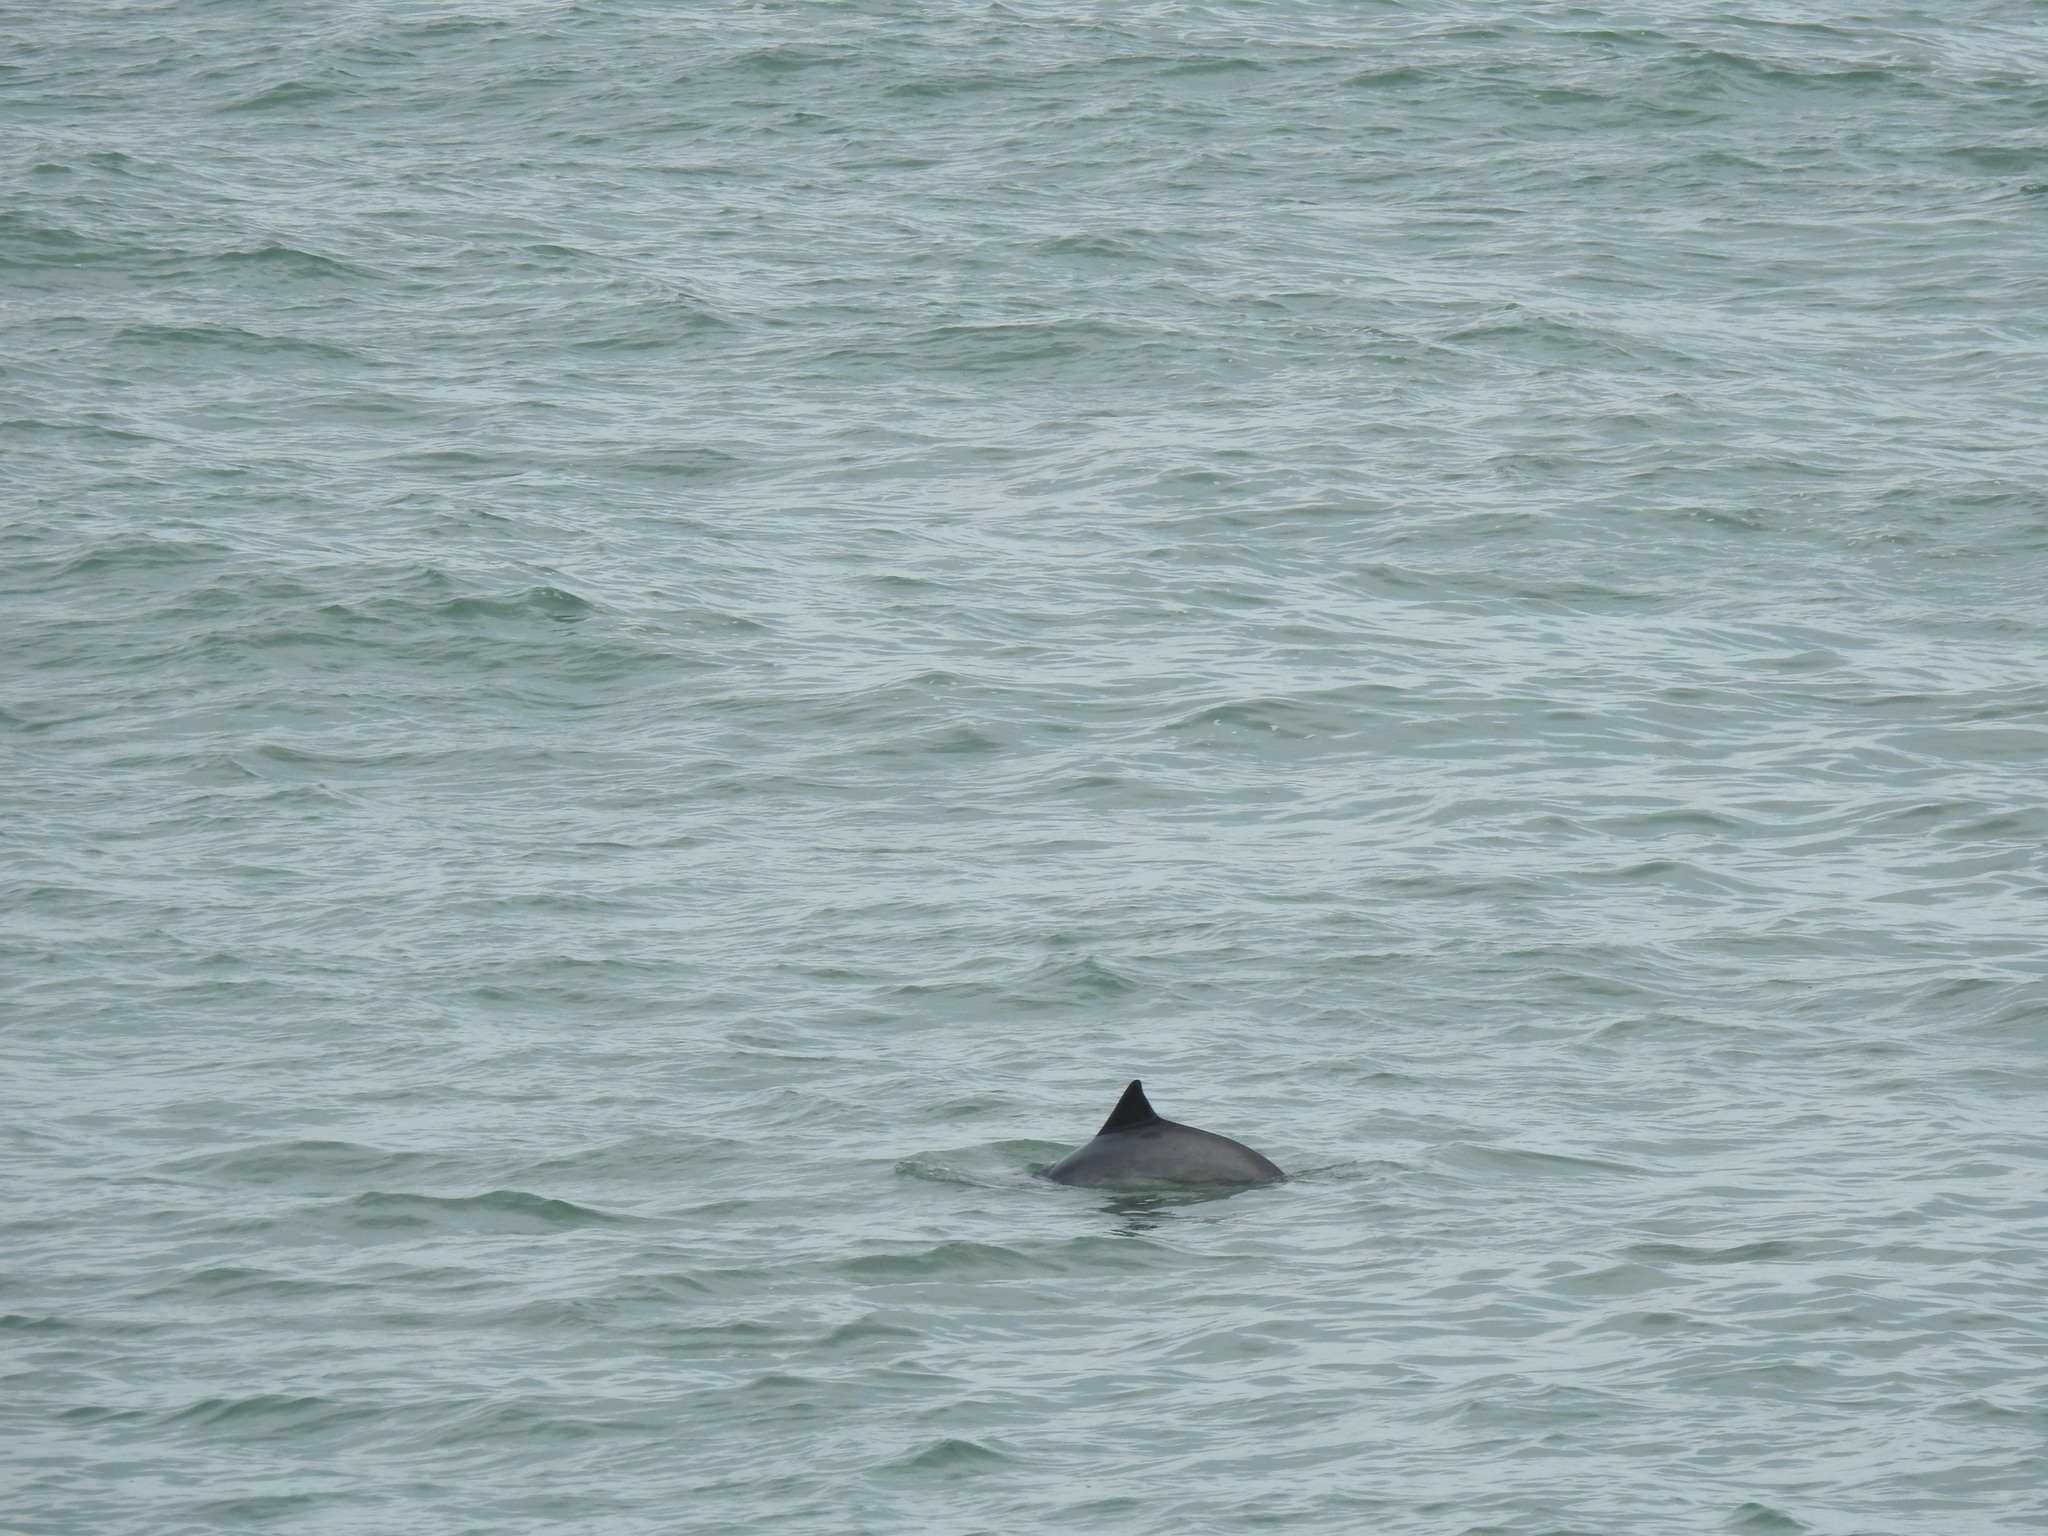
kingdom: Animalia
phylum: Chordata
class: Mammalia
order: Cetacea
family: Phocoenidae
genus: Phocoena
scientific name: Phocoena phocoena
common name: Harbor porpoise
